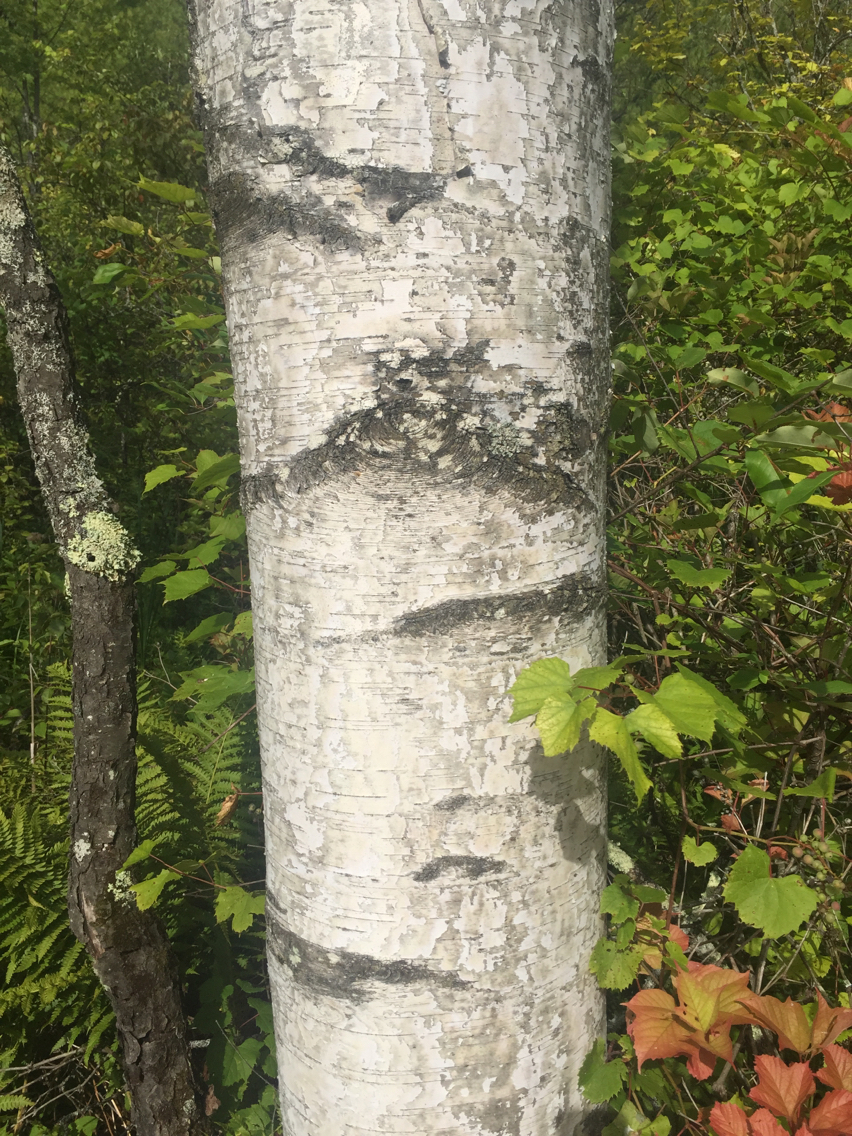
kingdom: Plantae
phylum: Tracheophyta
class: Magnoliopsida
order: Fagales
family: Betulaceae
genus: Betula
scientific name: Betula populifolia
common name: Fire birch
